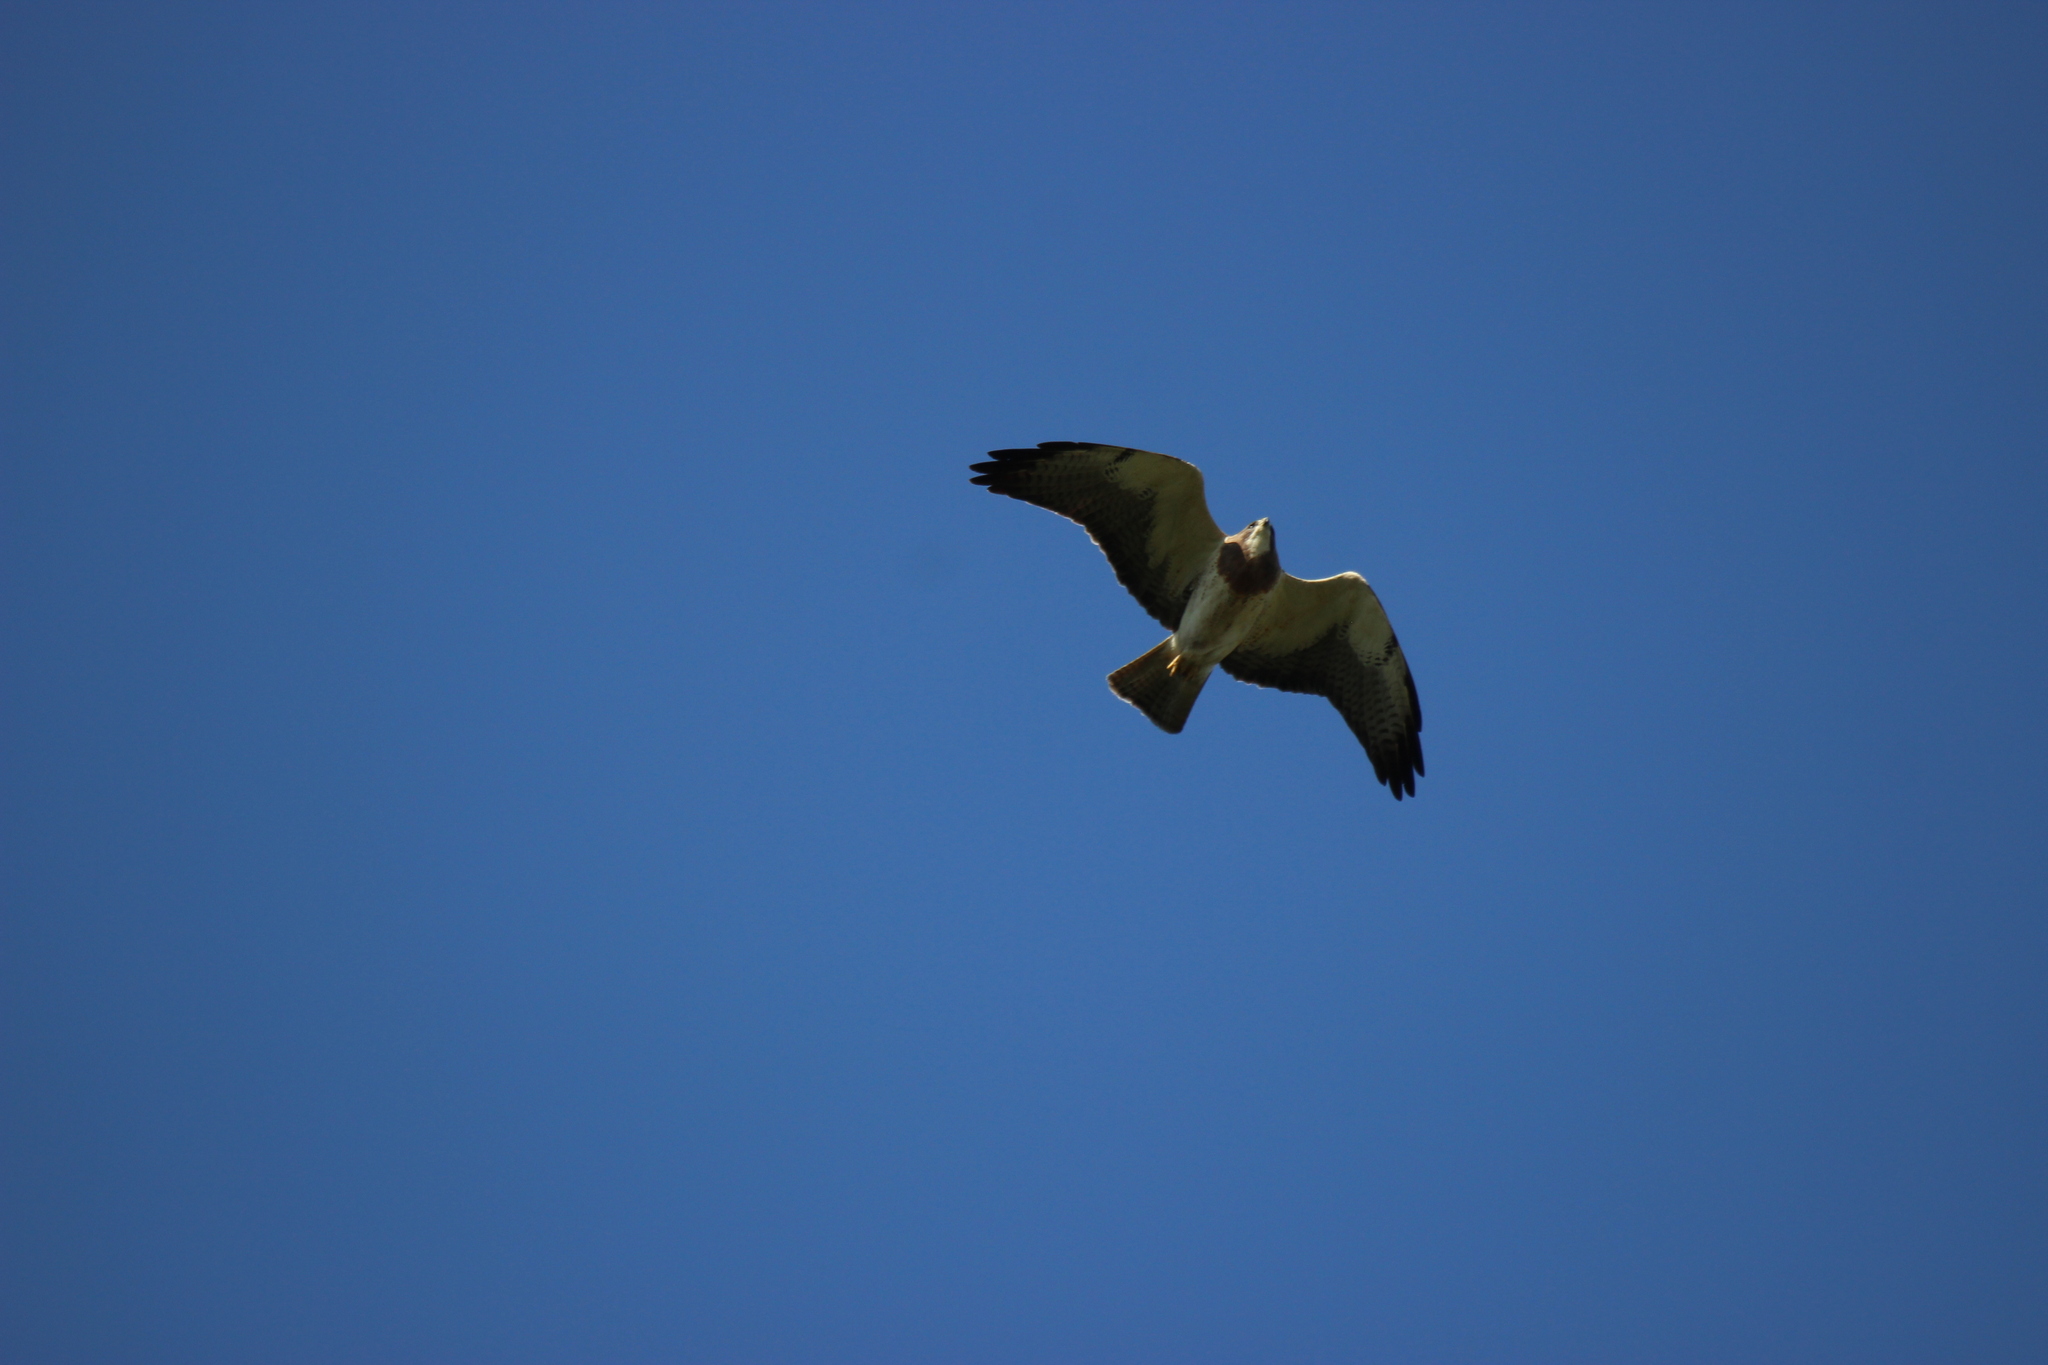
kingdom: Animalia
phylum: Chordata
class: Aves
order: Accipitriformes
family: Accipitridae
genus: Buteo
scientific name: Buteo swainsoni
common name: Swainson's hawk
